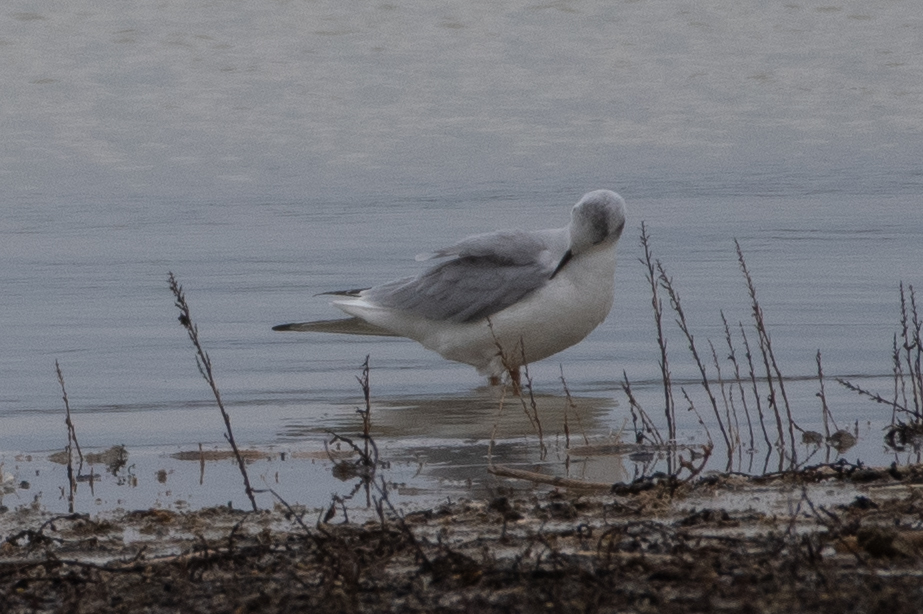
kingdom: Animalia
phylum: Chordata
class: Aves
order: Charadriiformes
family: Laridae
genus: Chroicocephalus
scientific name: Chroicocephalus philadelphia
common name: Bonaparte's gull
